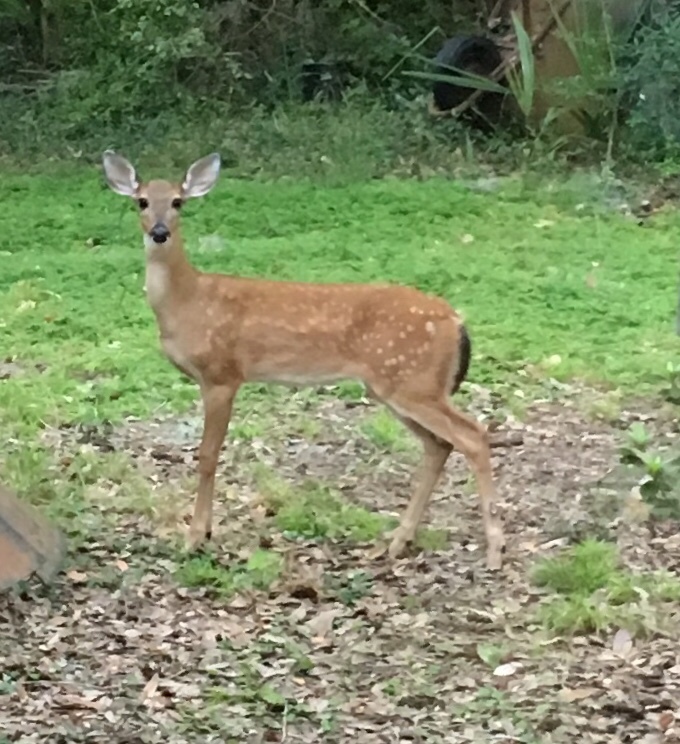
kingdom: Animalia
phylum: Chordata
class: Mammalia
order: Artiodactyla
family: Cervidae
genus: Odocoileus
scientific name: Odocoileus virginianus
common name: White-tailed deer
